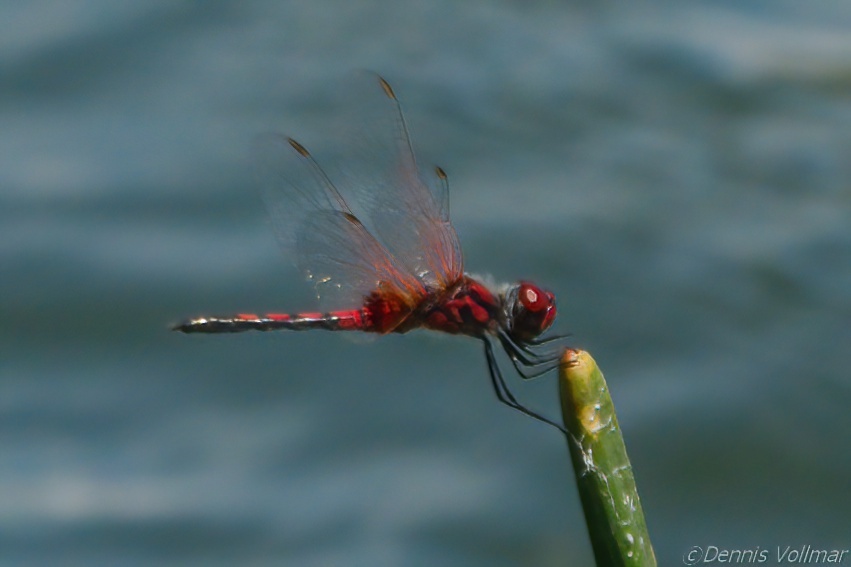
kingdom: Animalia
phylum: Arthropoda
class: Insecta
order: Odonata
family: Libellulidae
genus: Celithemis
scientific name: Celithemis bertha
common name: Red-veined pennant
